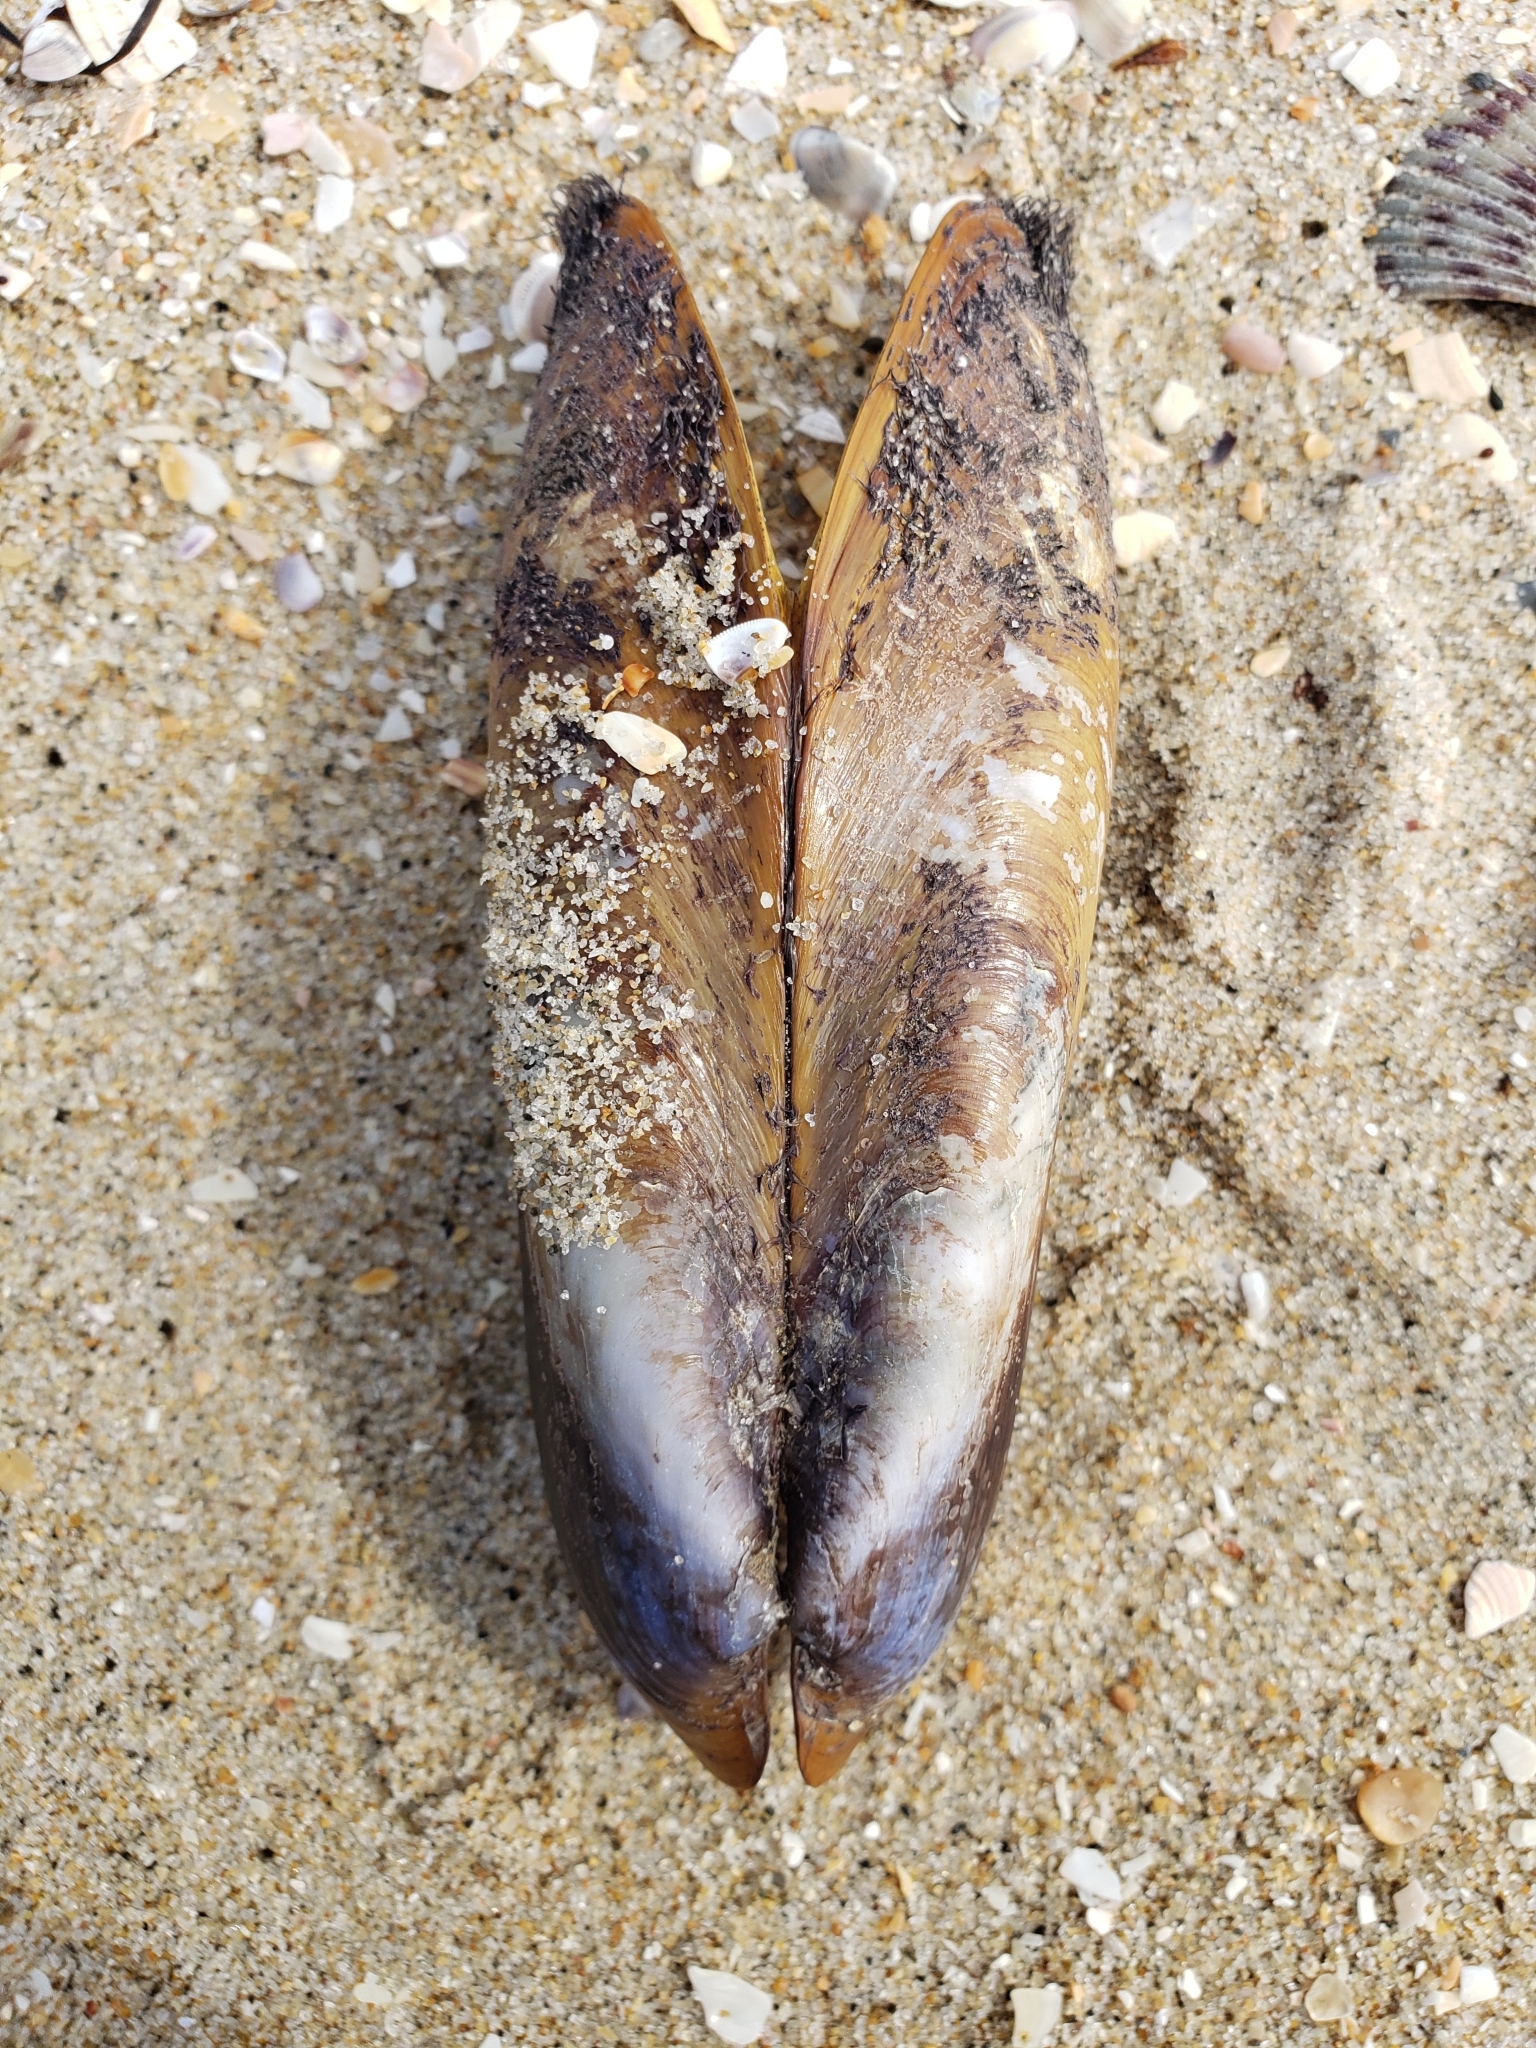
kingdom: Animalia
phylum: Mollusca
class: Bivalvia
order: Mytilida
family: Mytilidae
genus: Modiolus
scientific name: Modiolus rectus
